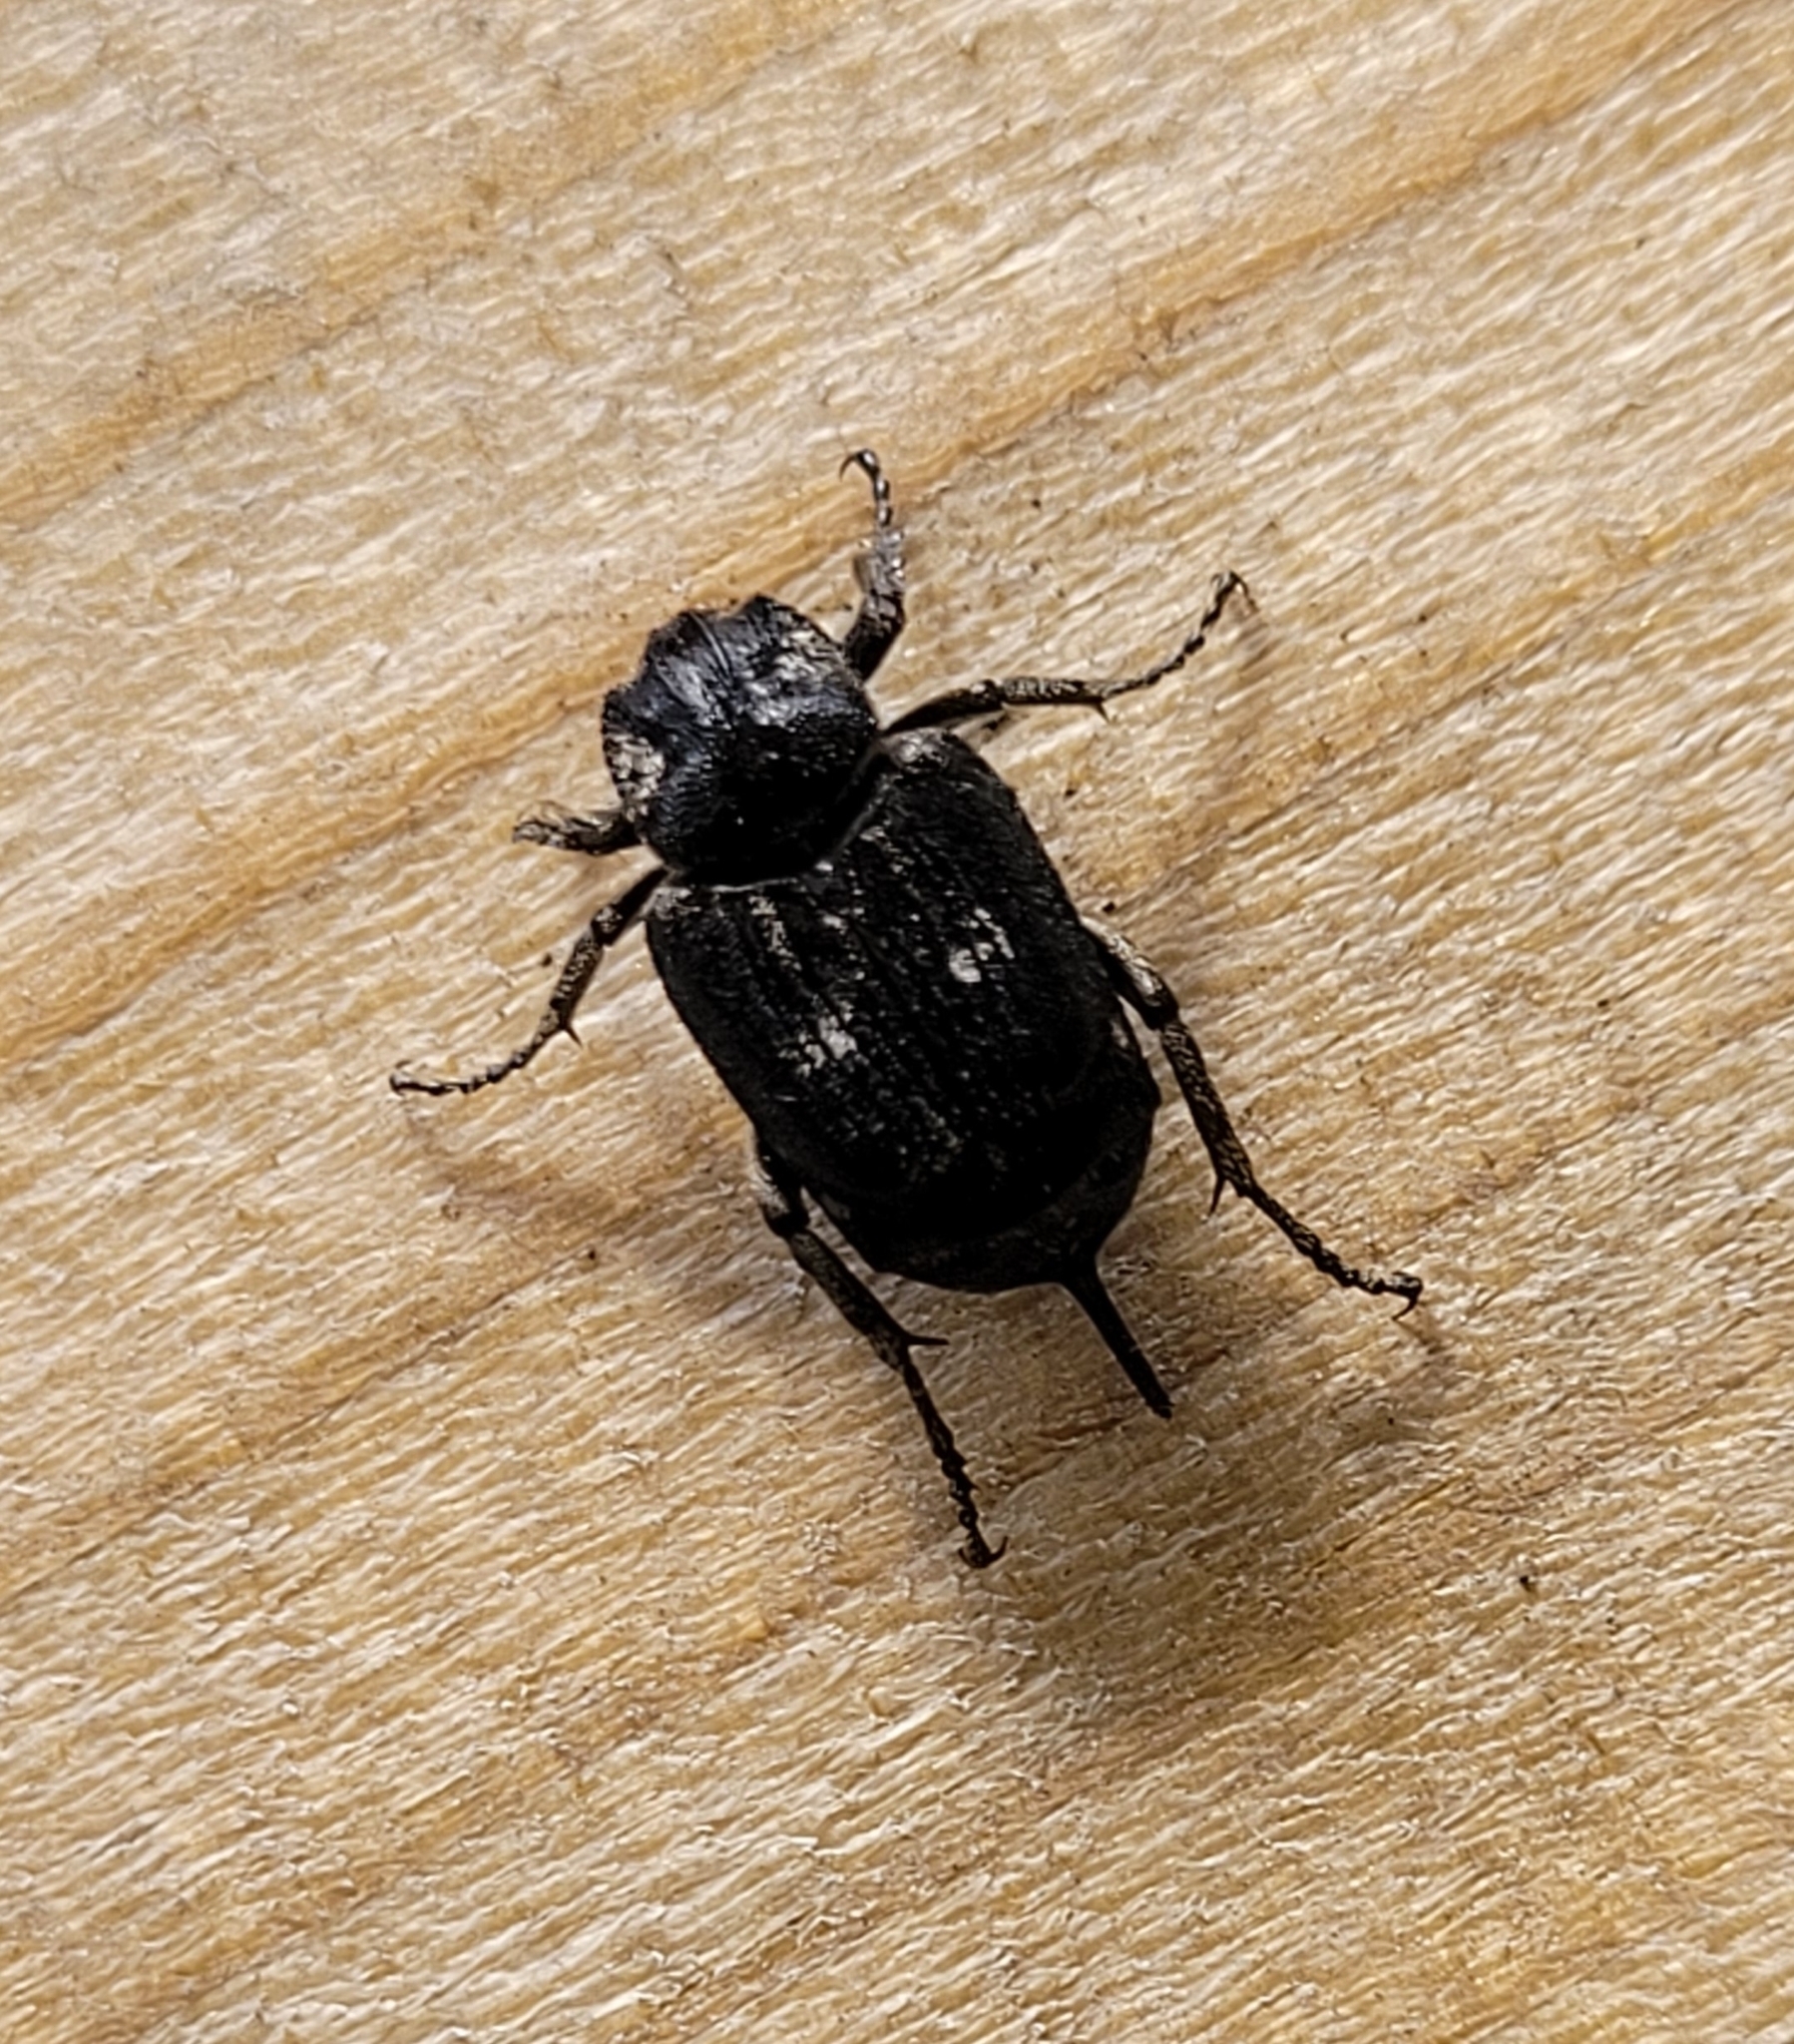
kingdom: Animalia
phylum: Arthropoda
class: Insecta
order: Coleoptera
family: Scarabaeidae
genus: Valgus
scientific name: Valgus hemipterus
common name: Bug flower chafer
